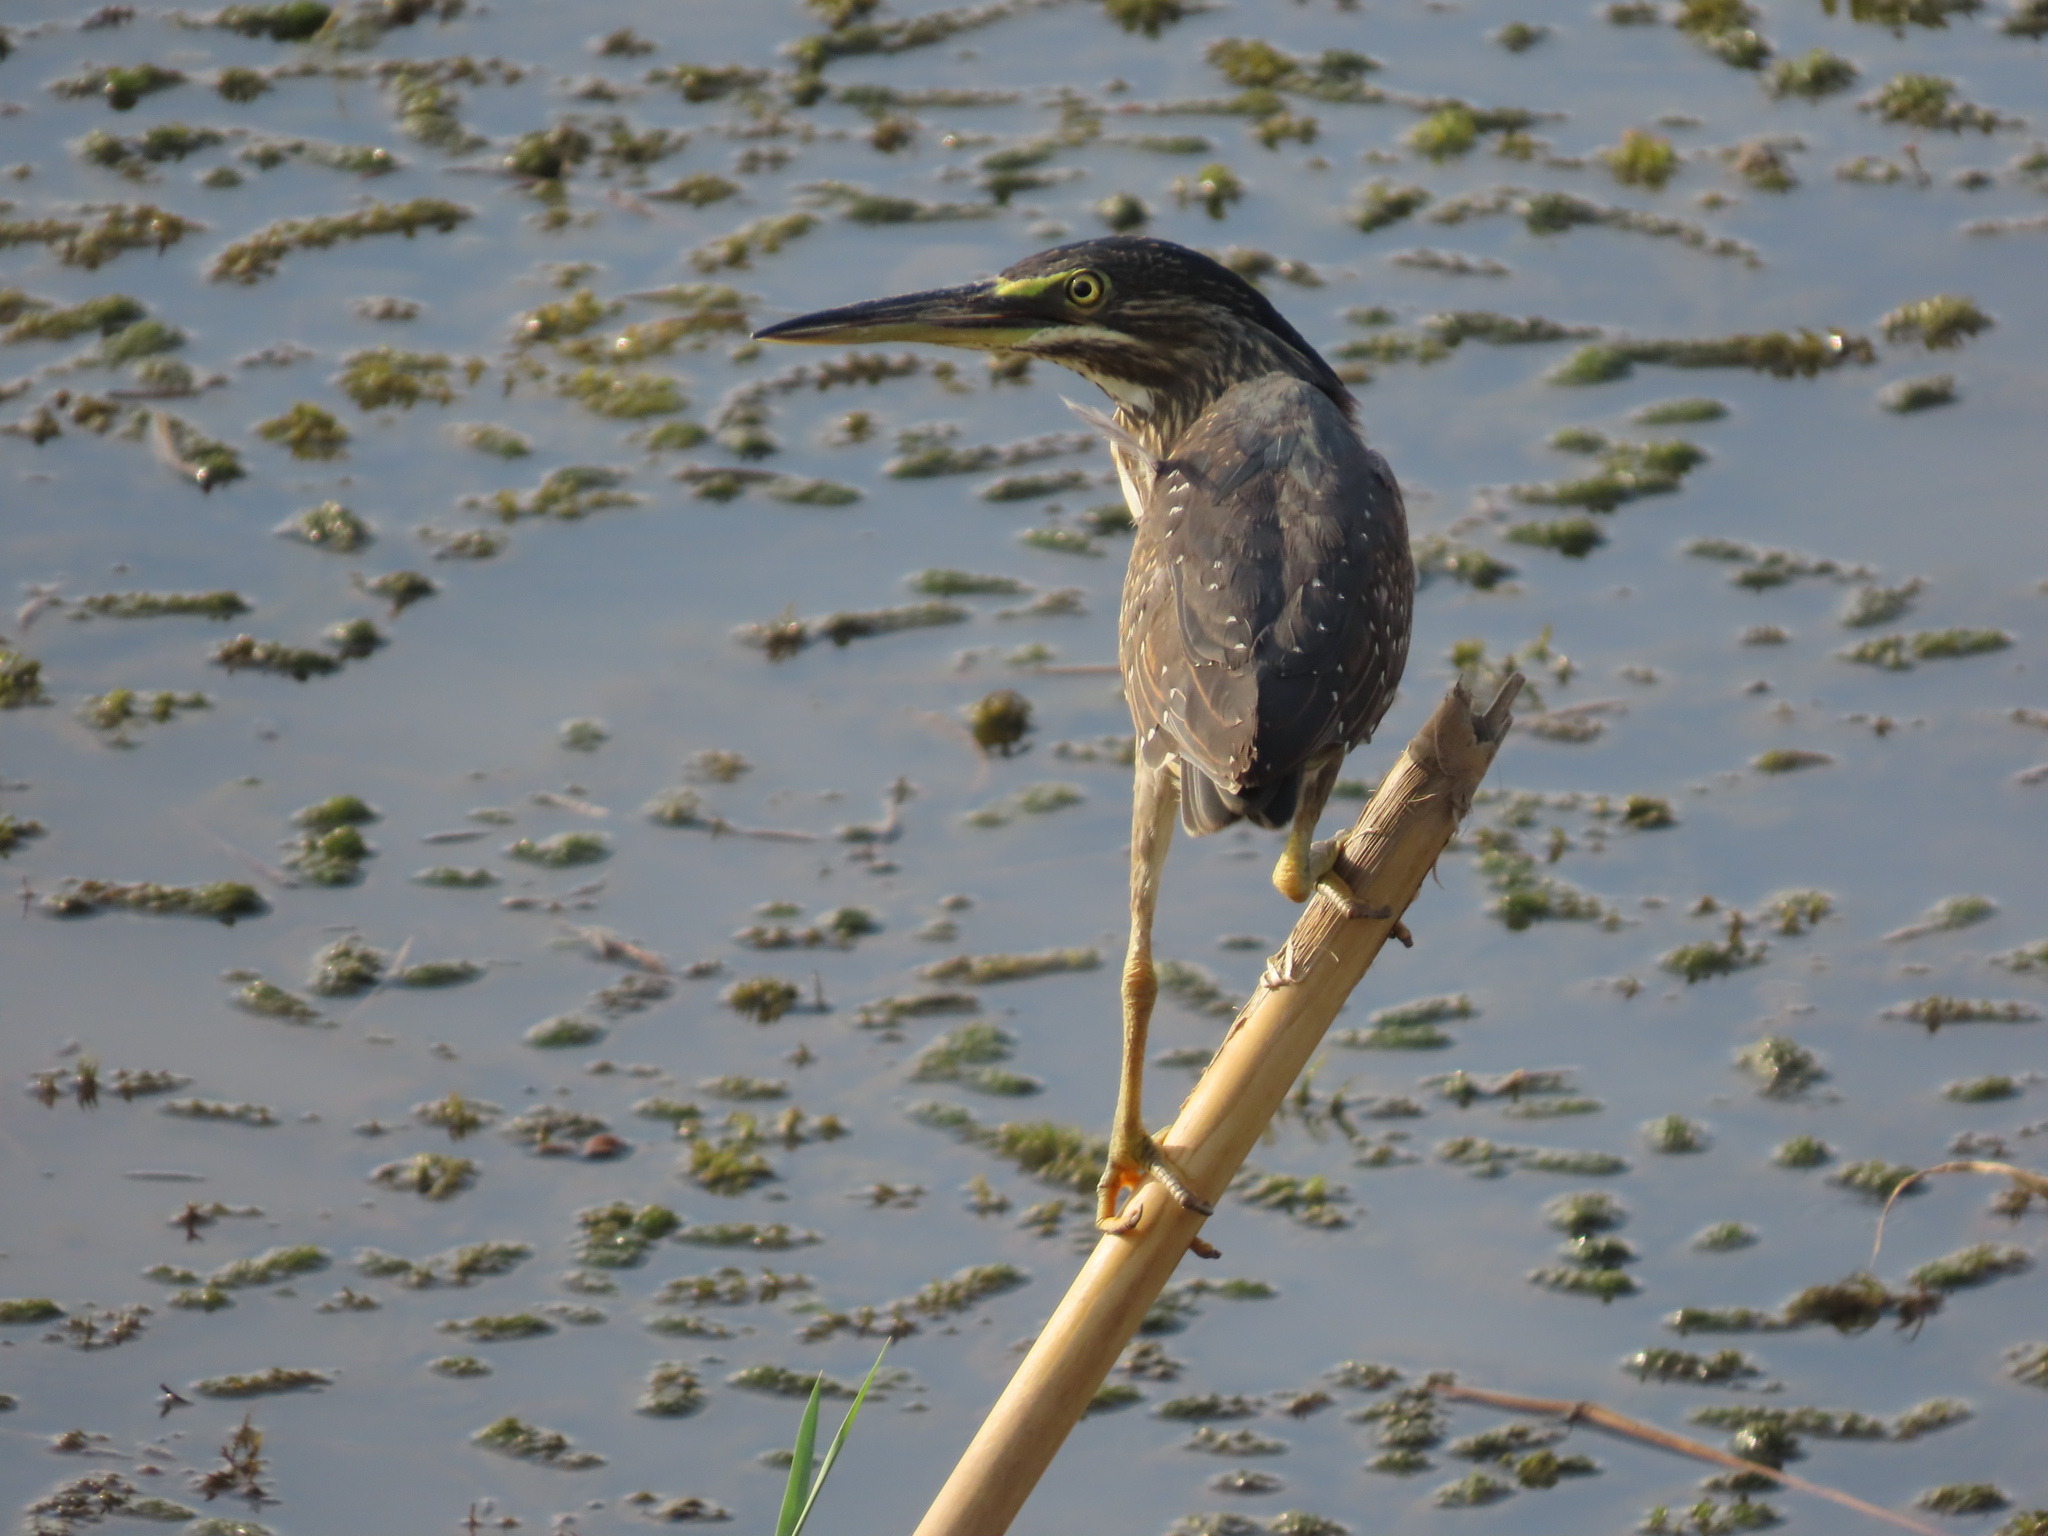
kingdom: Animalia
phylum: Chordata
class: Aves
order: Pelecaniformes
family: Ardeidae
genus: Butorides
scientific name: Butorides striata
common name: Striated heron
